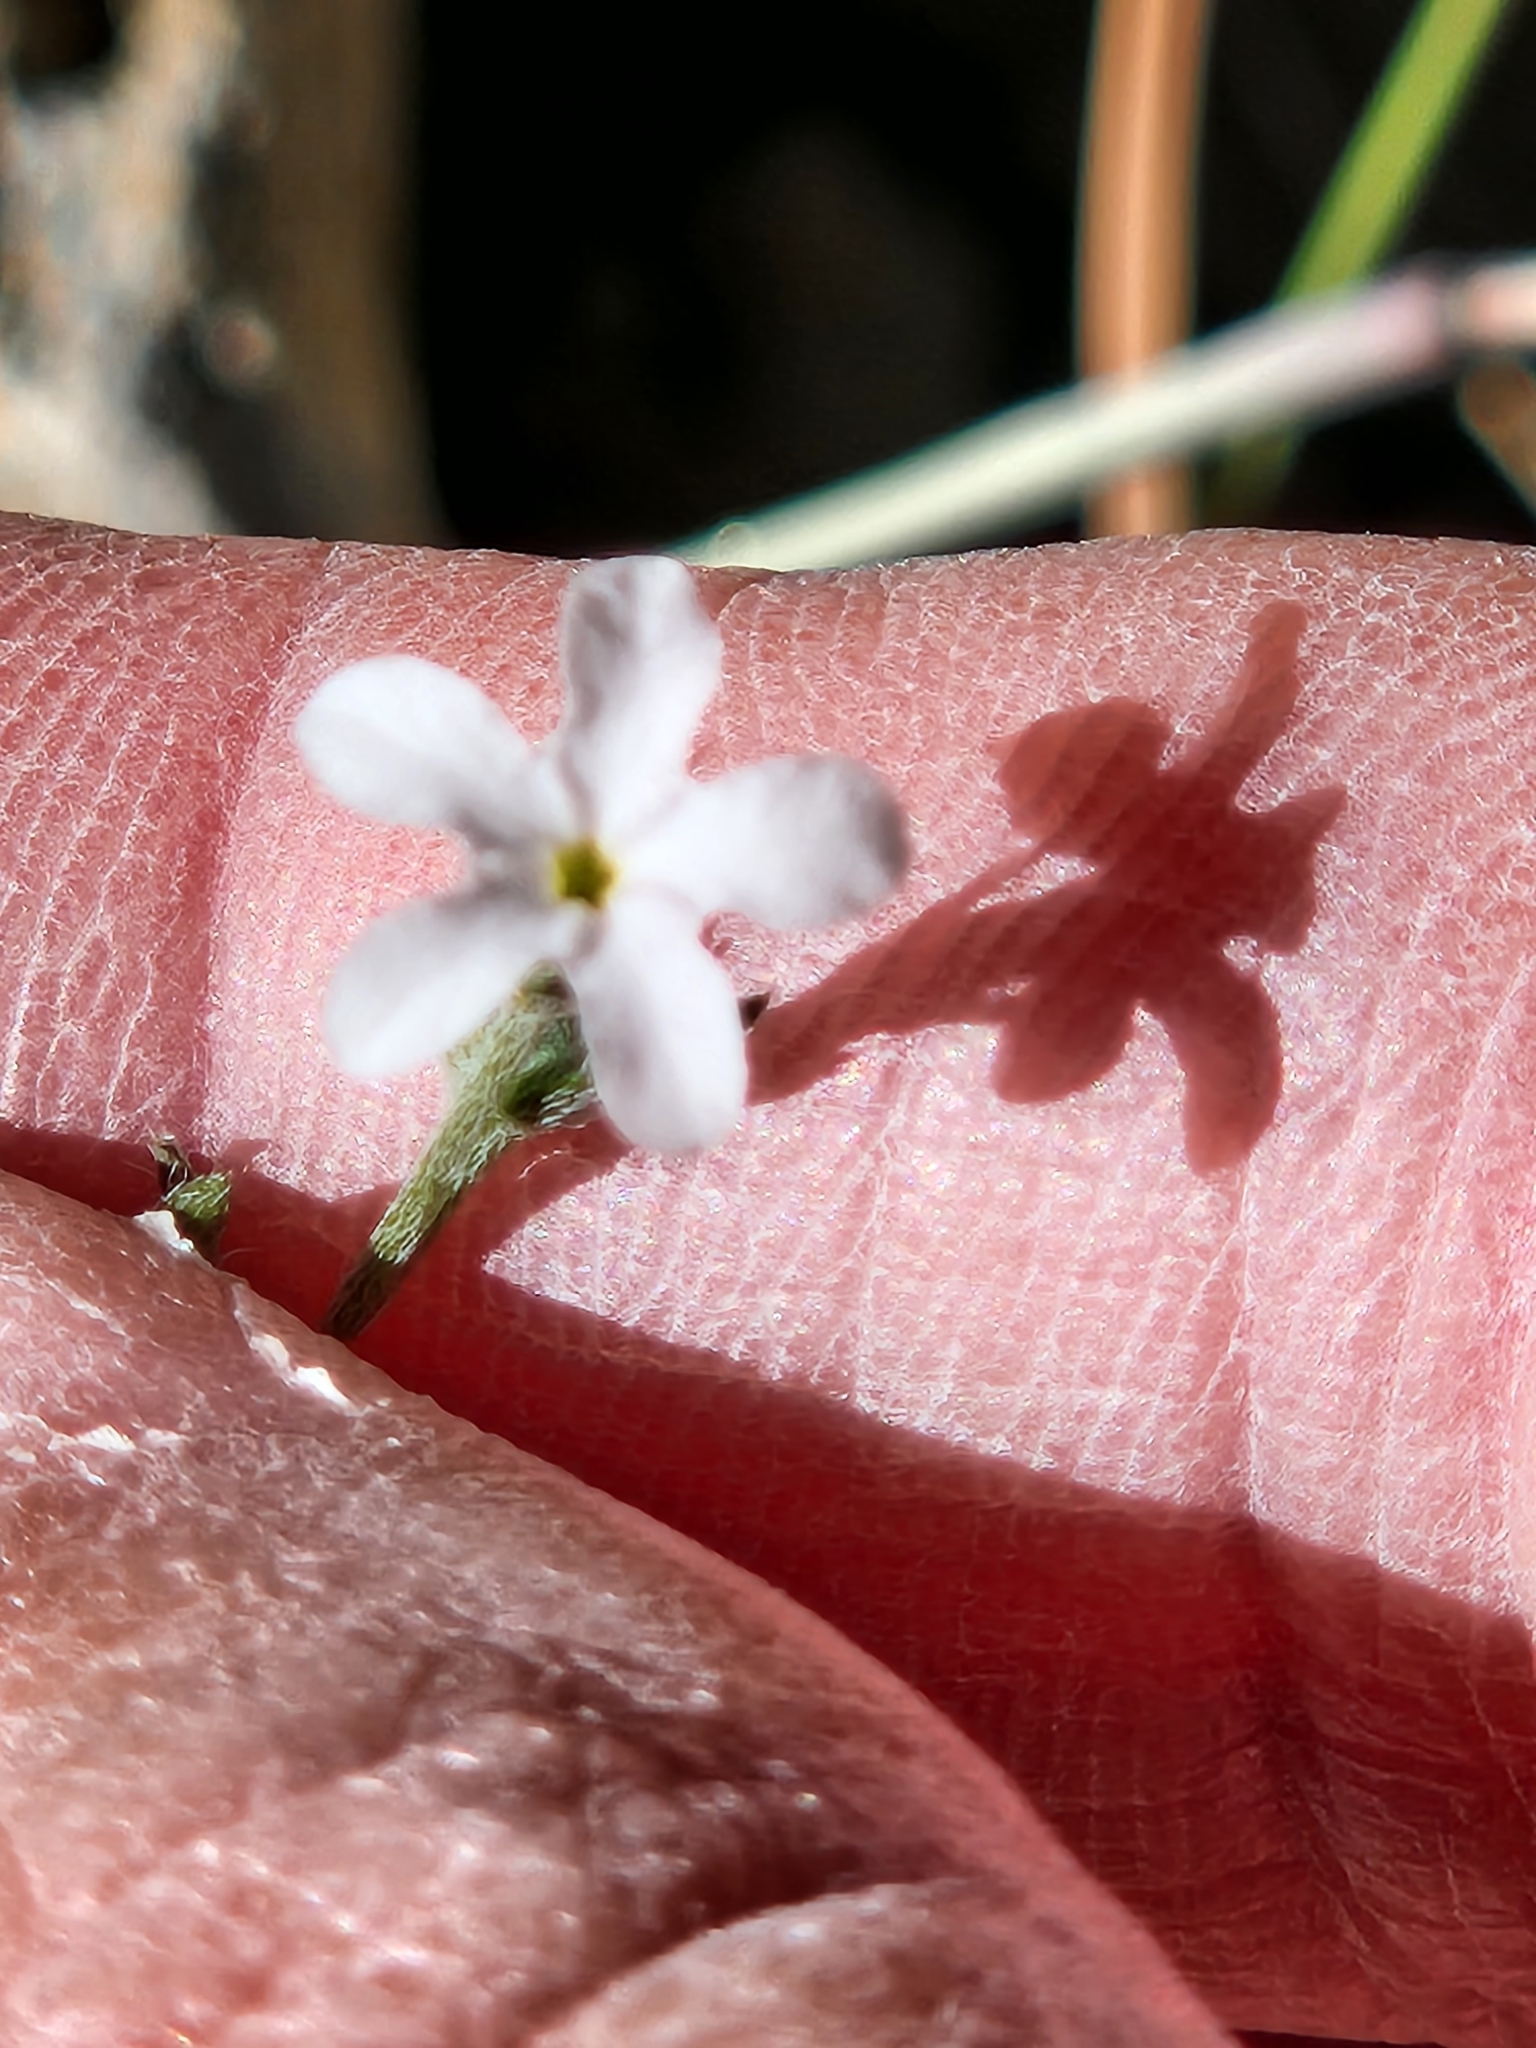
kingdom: Plantae
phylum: Tracheophyta
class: Magnoliopsida
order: Boraginales
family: Heliotropiaceae
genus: Euploca
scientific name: Euploca tenella
